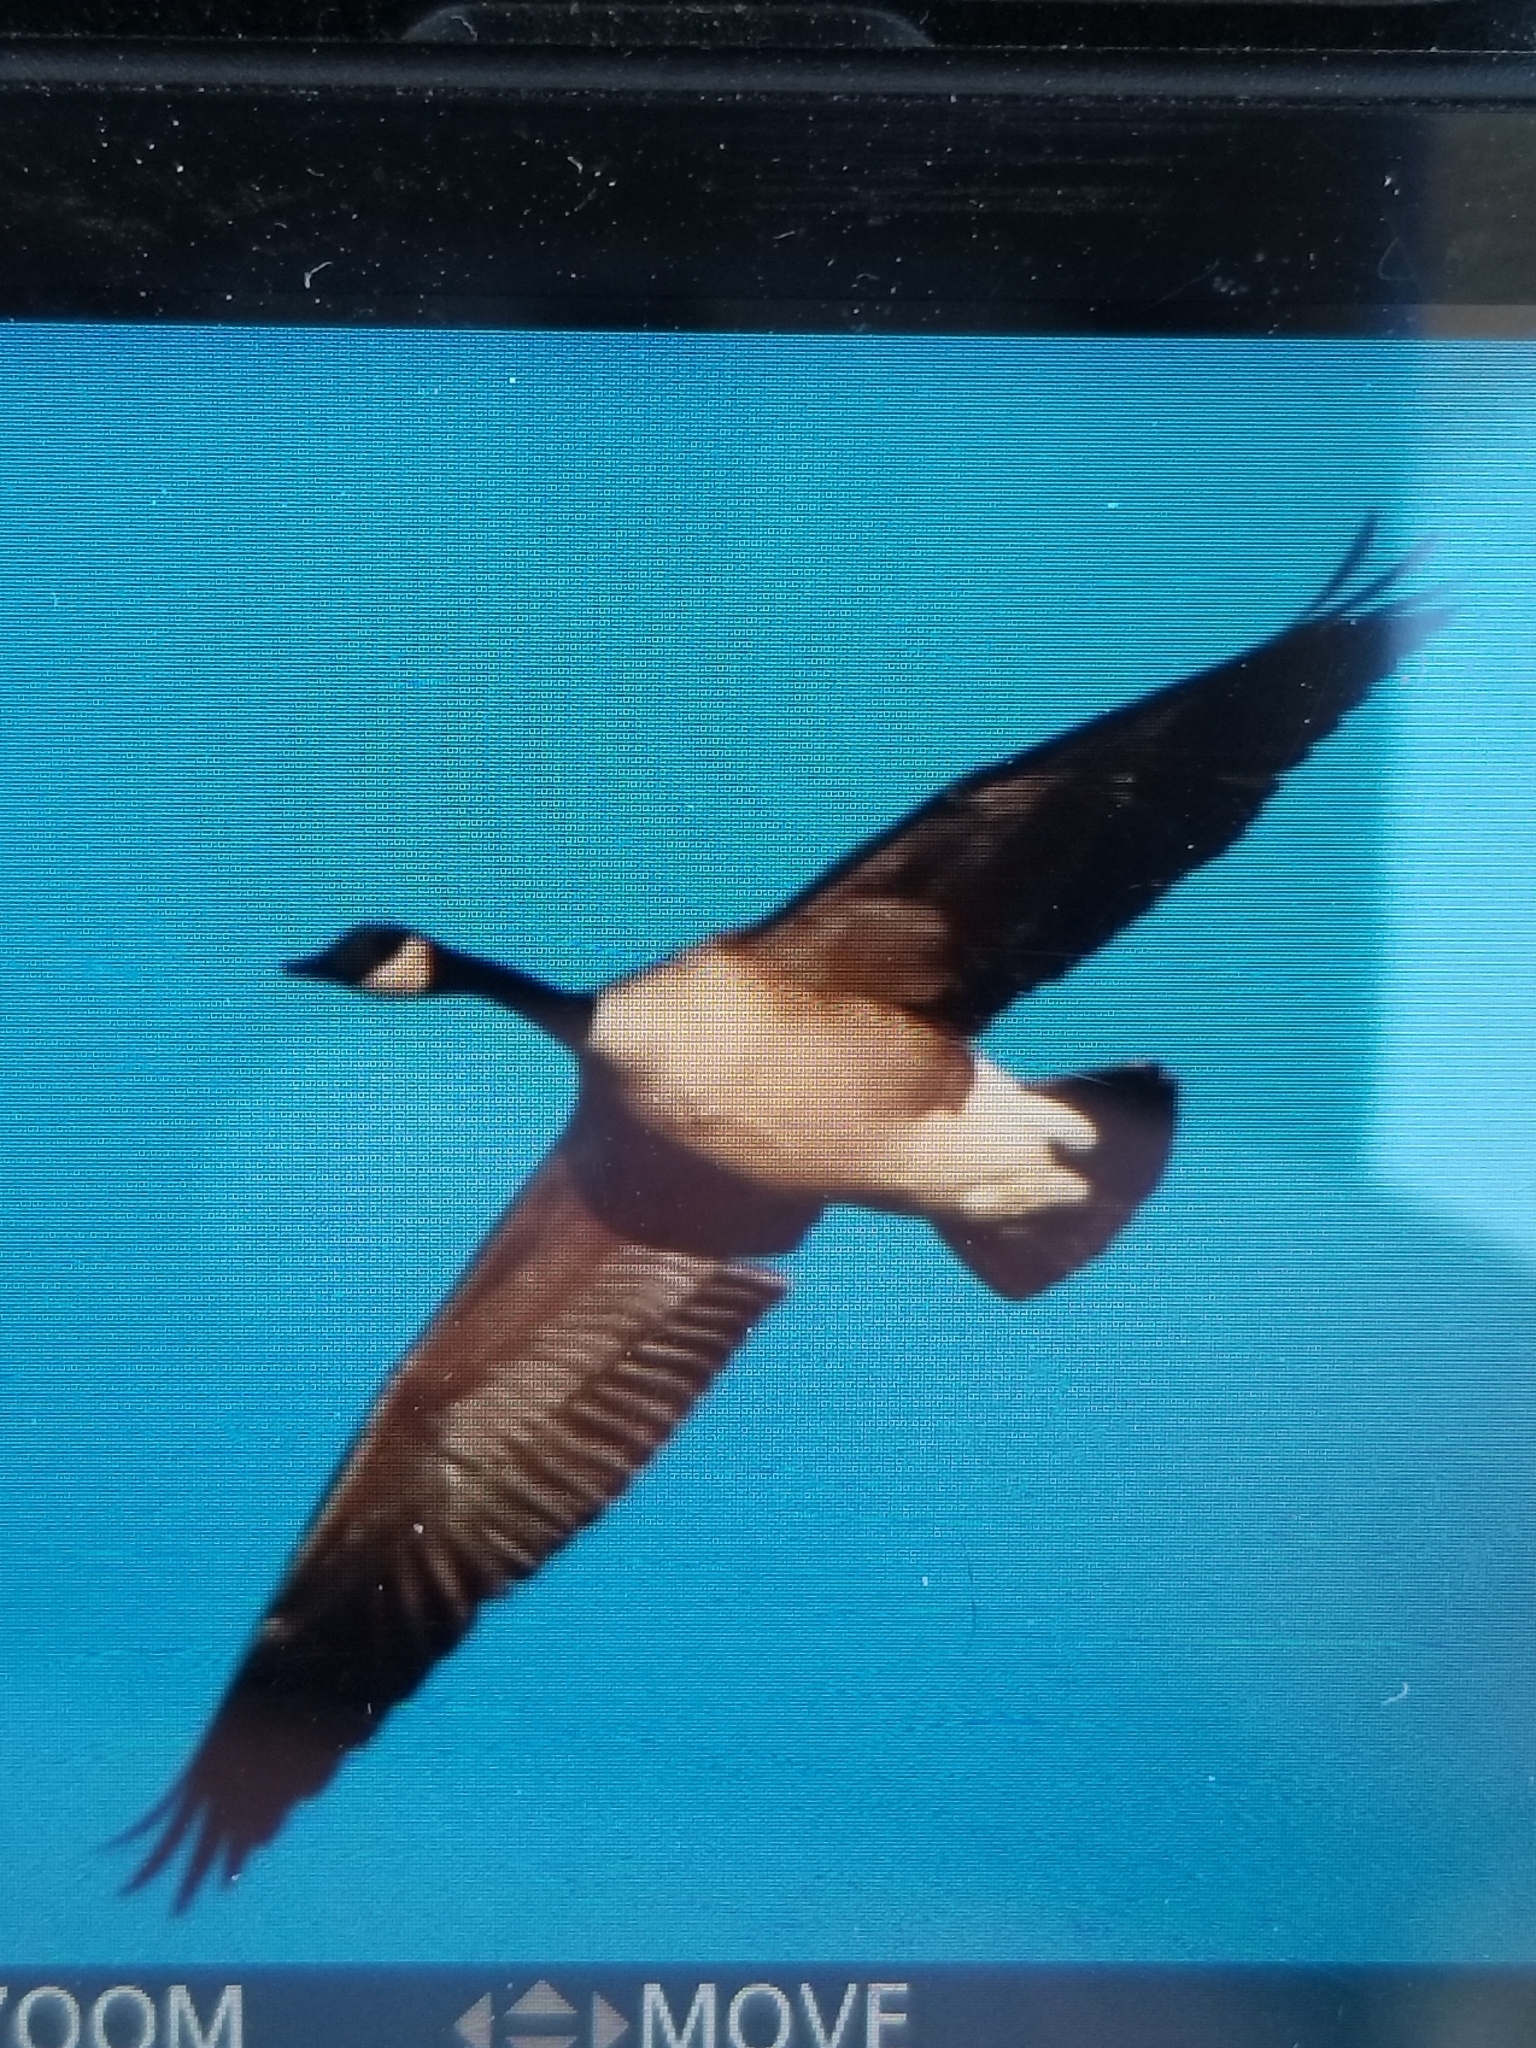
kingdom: Animalia
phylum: Chordata
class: Aves
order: Anseriformes
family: Anatidae
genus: Branta
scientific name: Branta canadensis
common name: Canada goose
